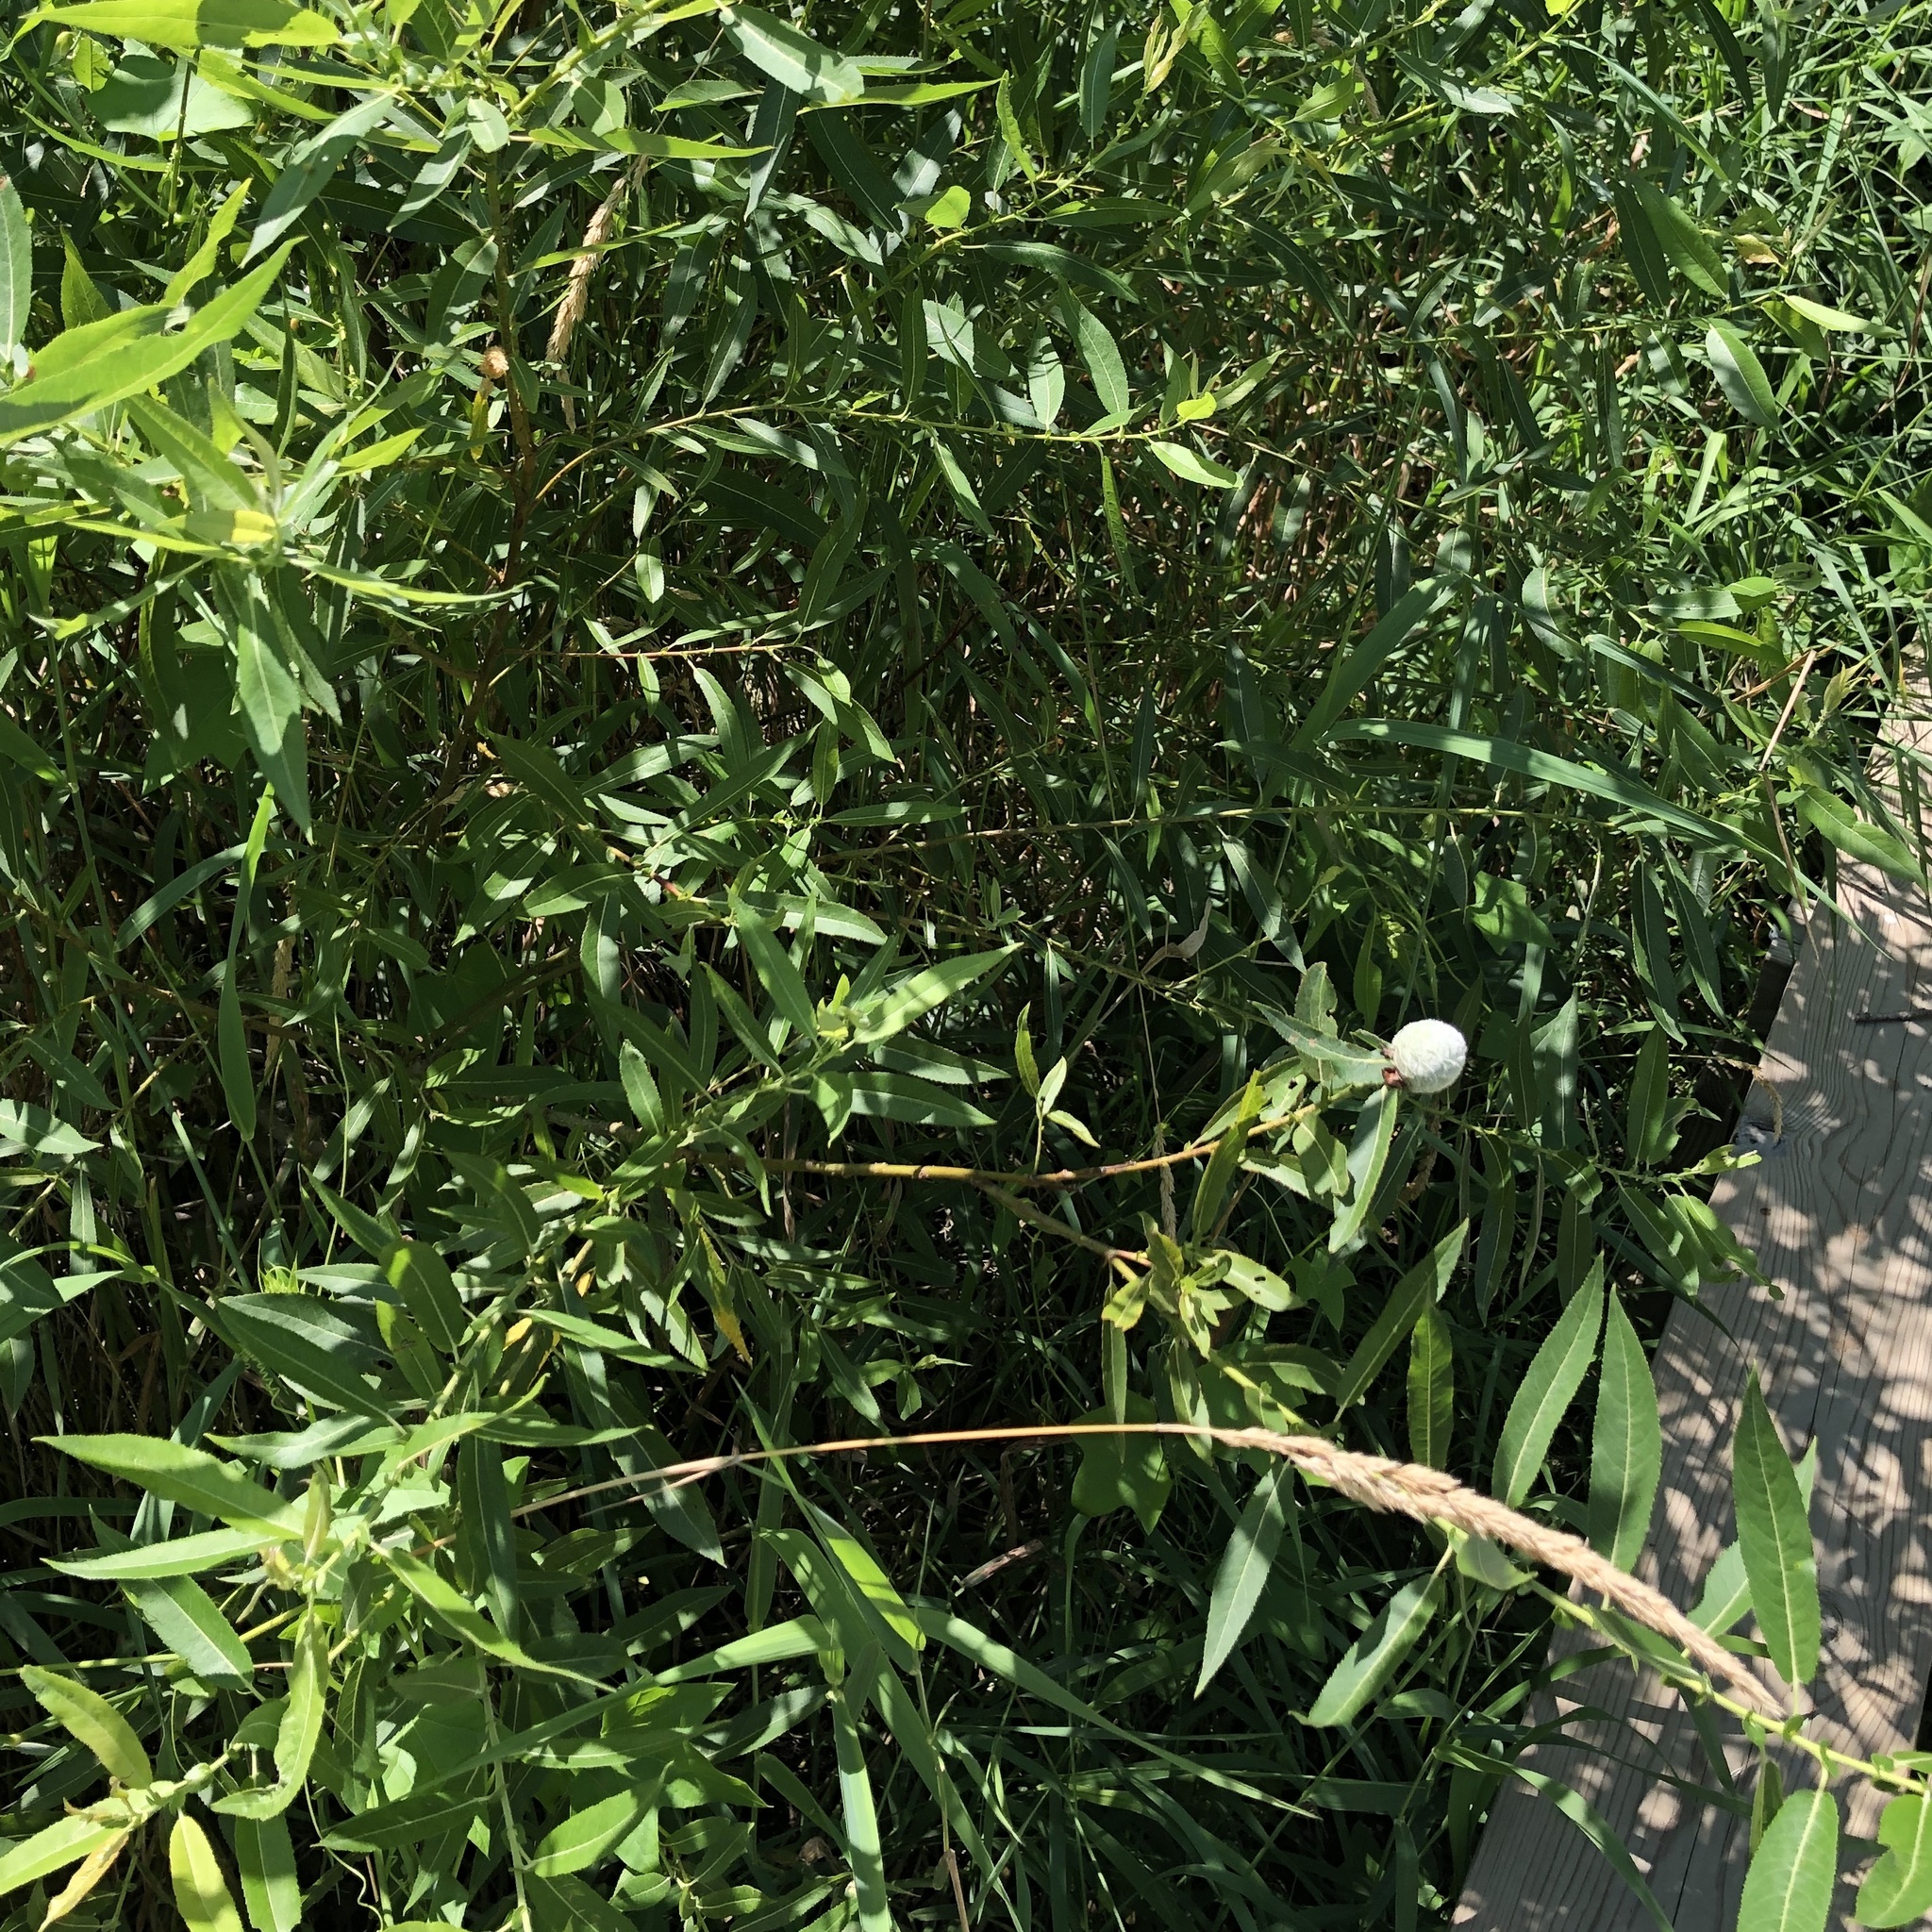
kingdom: Animalia
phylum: Arthropoda
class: Insecta
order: Diptera
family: Cecidomyiidae
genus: Rabdophaga
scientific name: Rabdophaga strobiloides
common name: Willow pinecone gall midge
